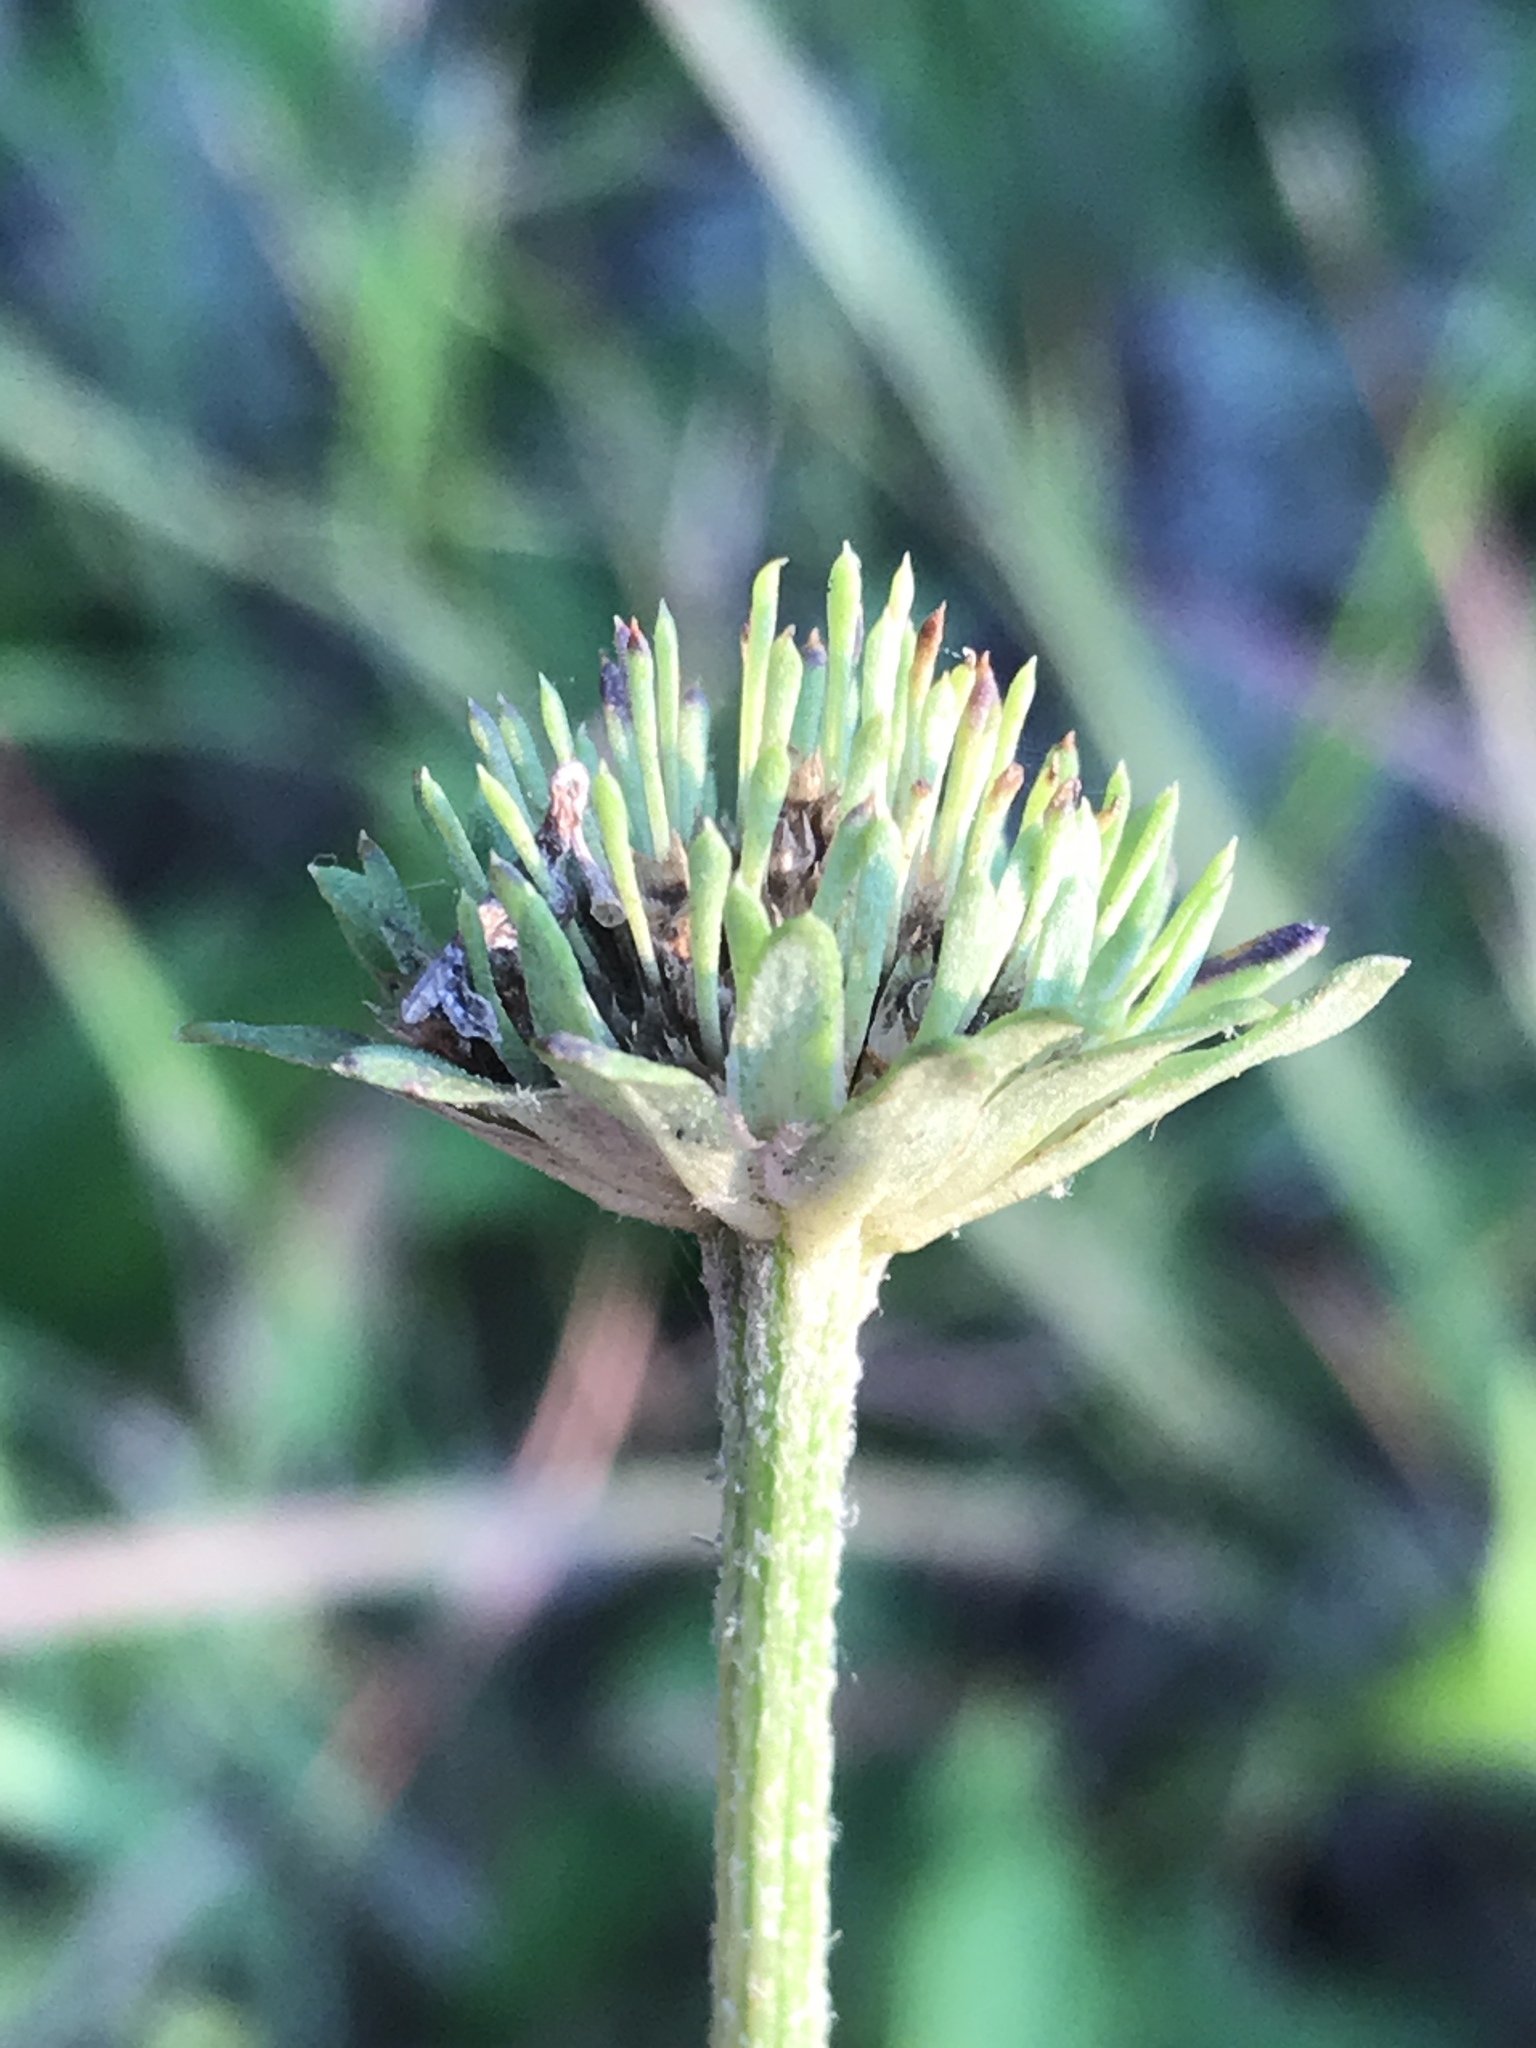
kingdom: Plantae
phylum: Tracheophyta
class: Magnoliopsida
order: Asterales
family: Asteraceae
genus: Marshallia
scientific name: Marshallia obovata
